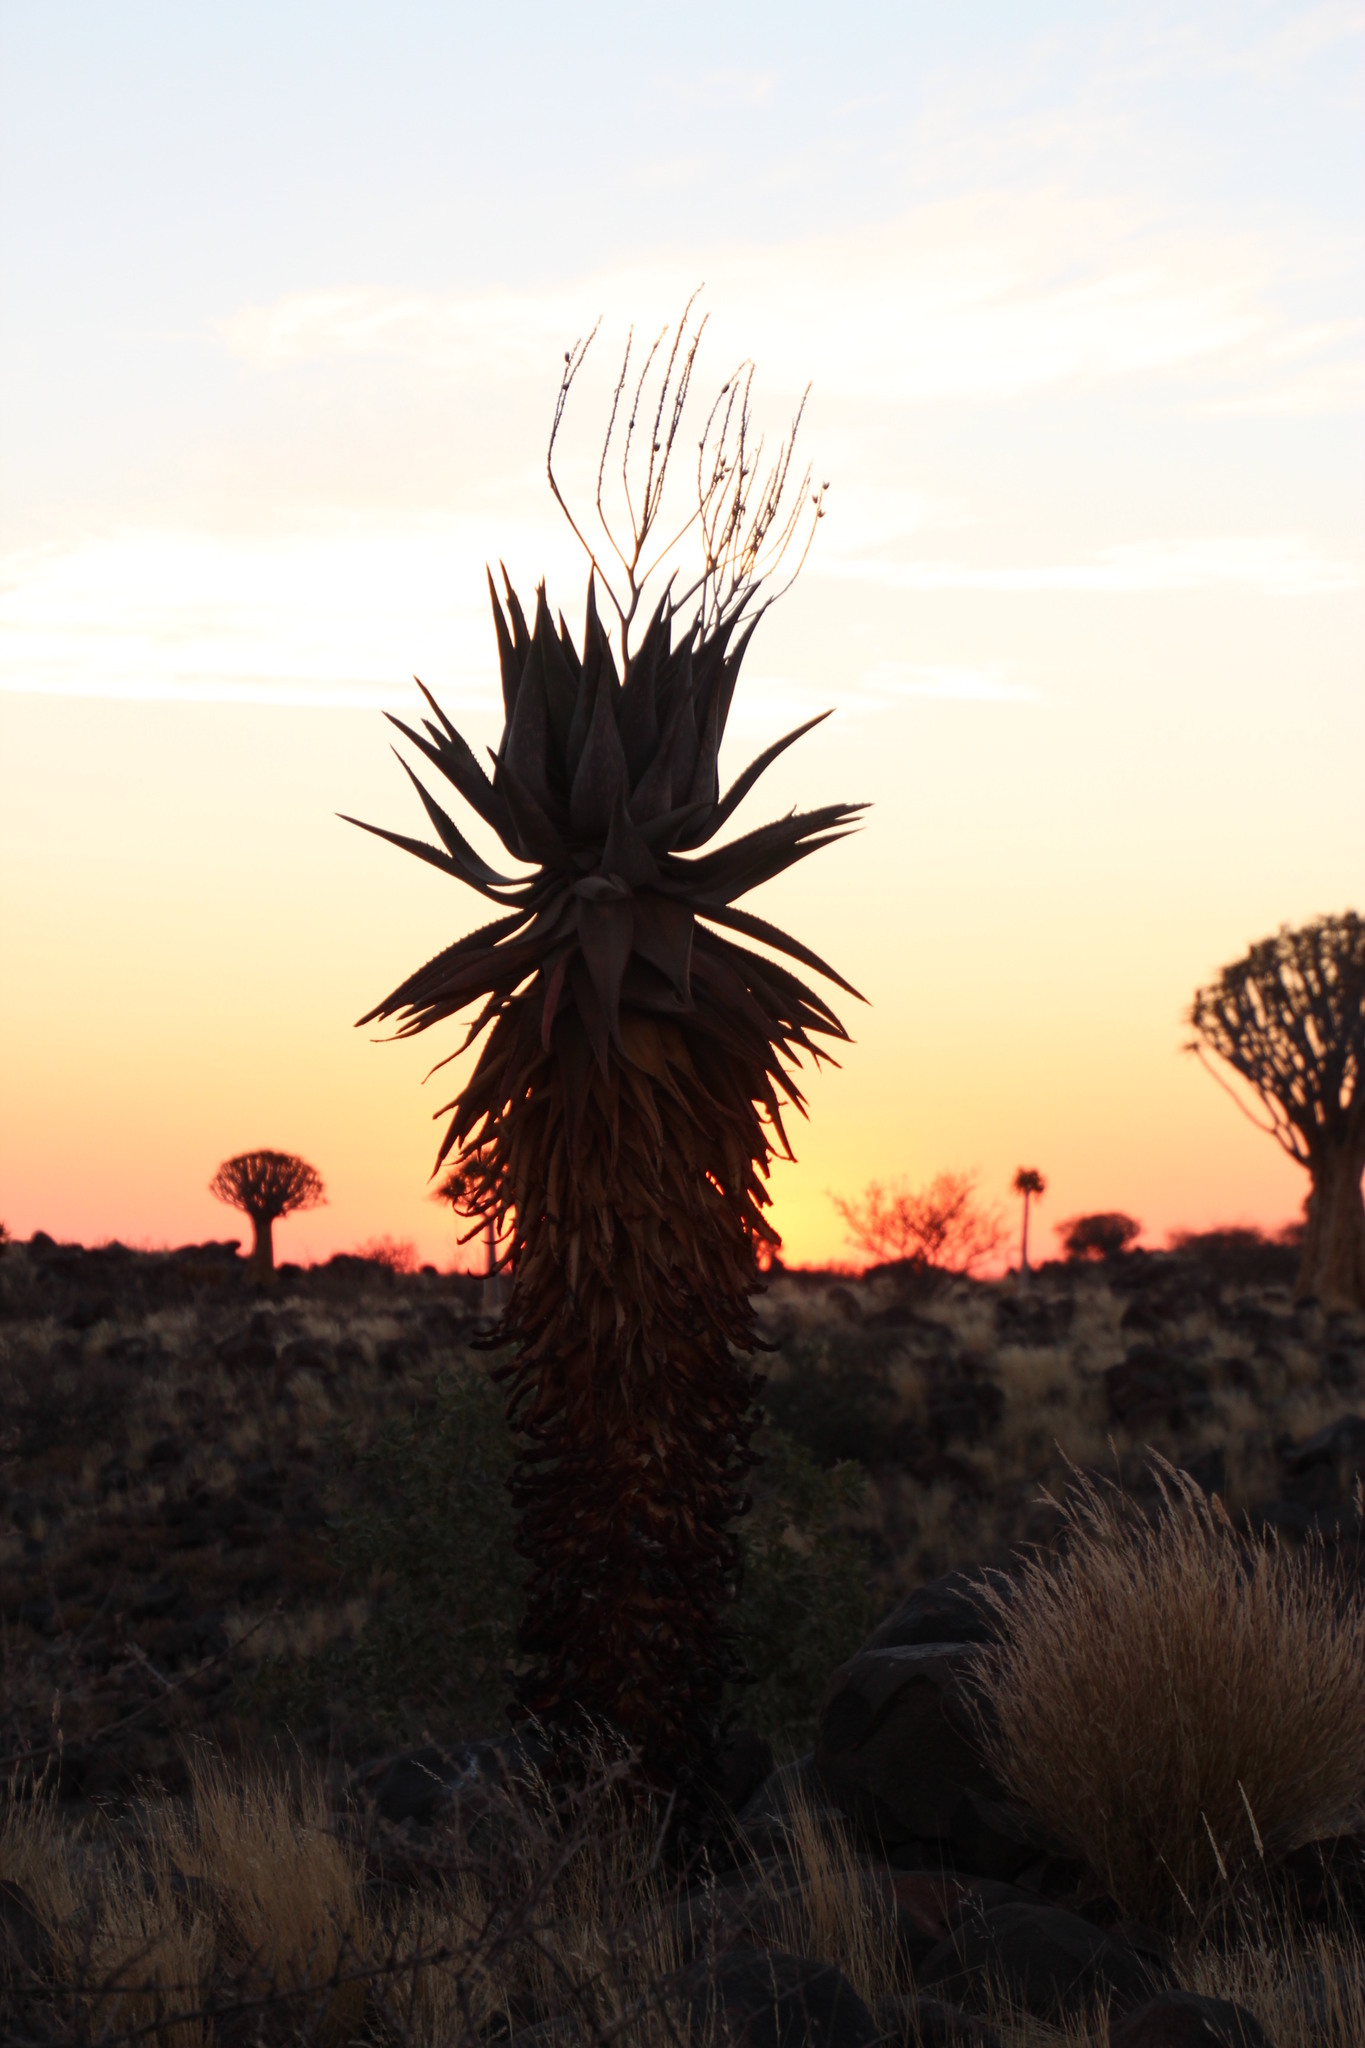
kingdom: Plantae
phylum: Tracheophyta
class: Liliopsida
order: Asparagales
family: Asphodelaceae
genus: Aloe
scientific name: Aloe littoralis
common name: Luanda tree aloe
